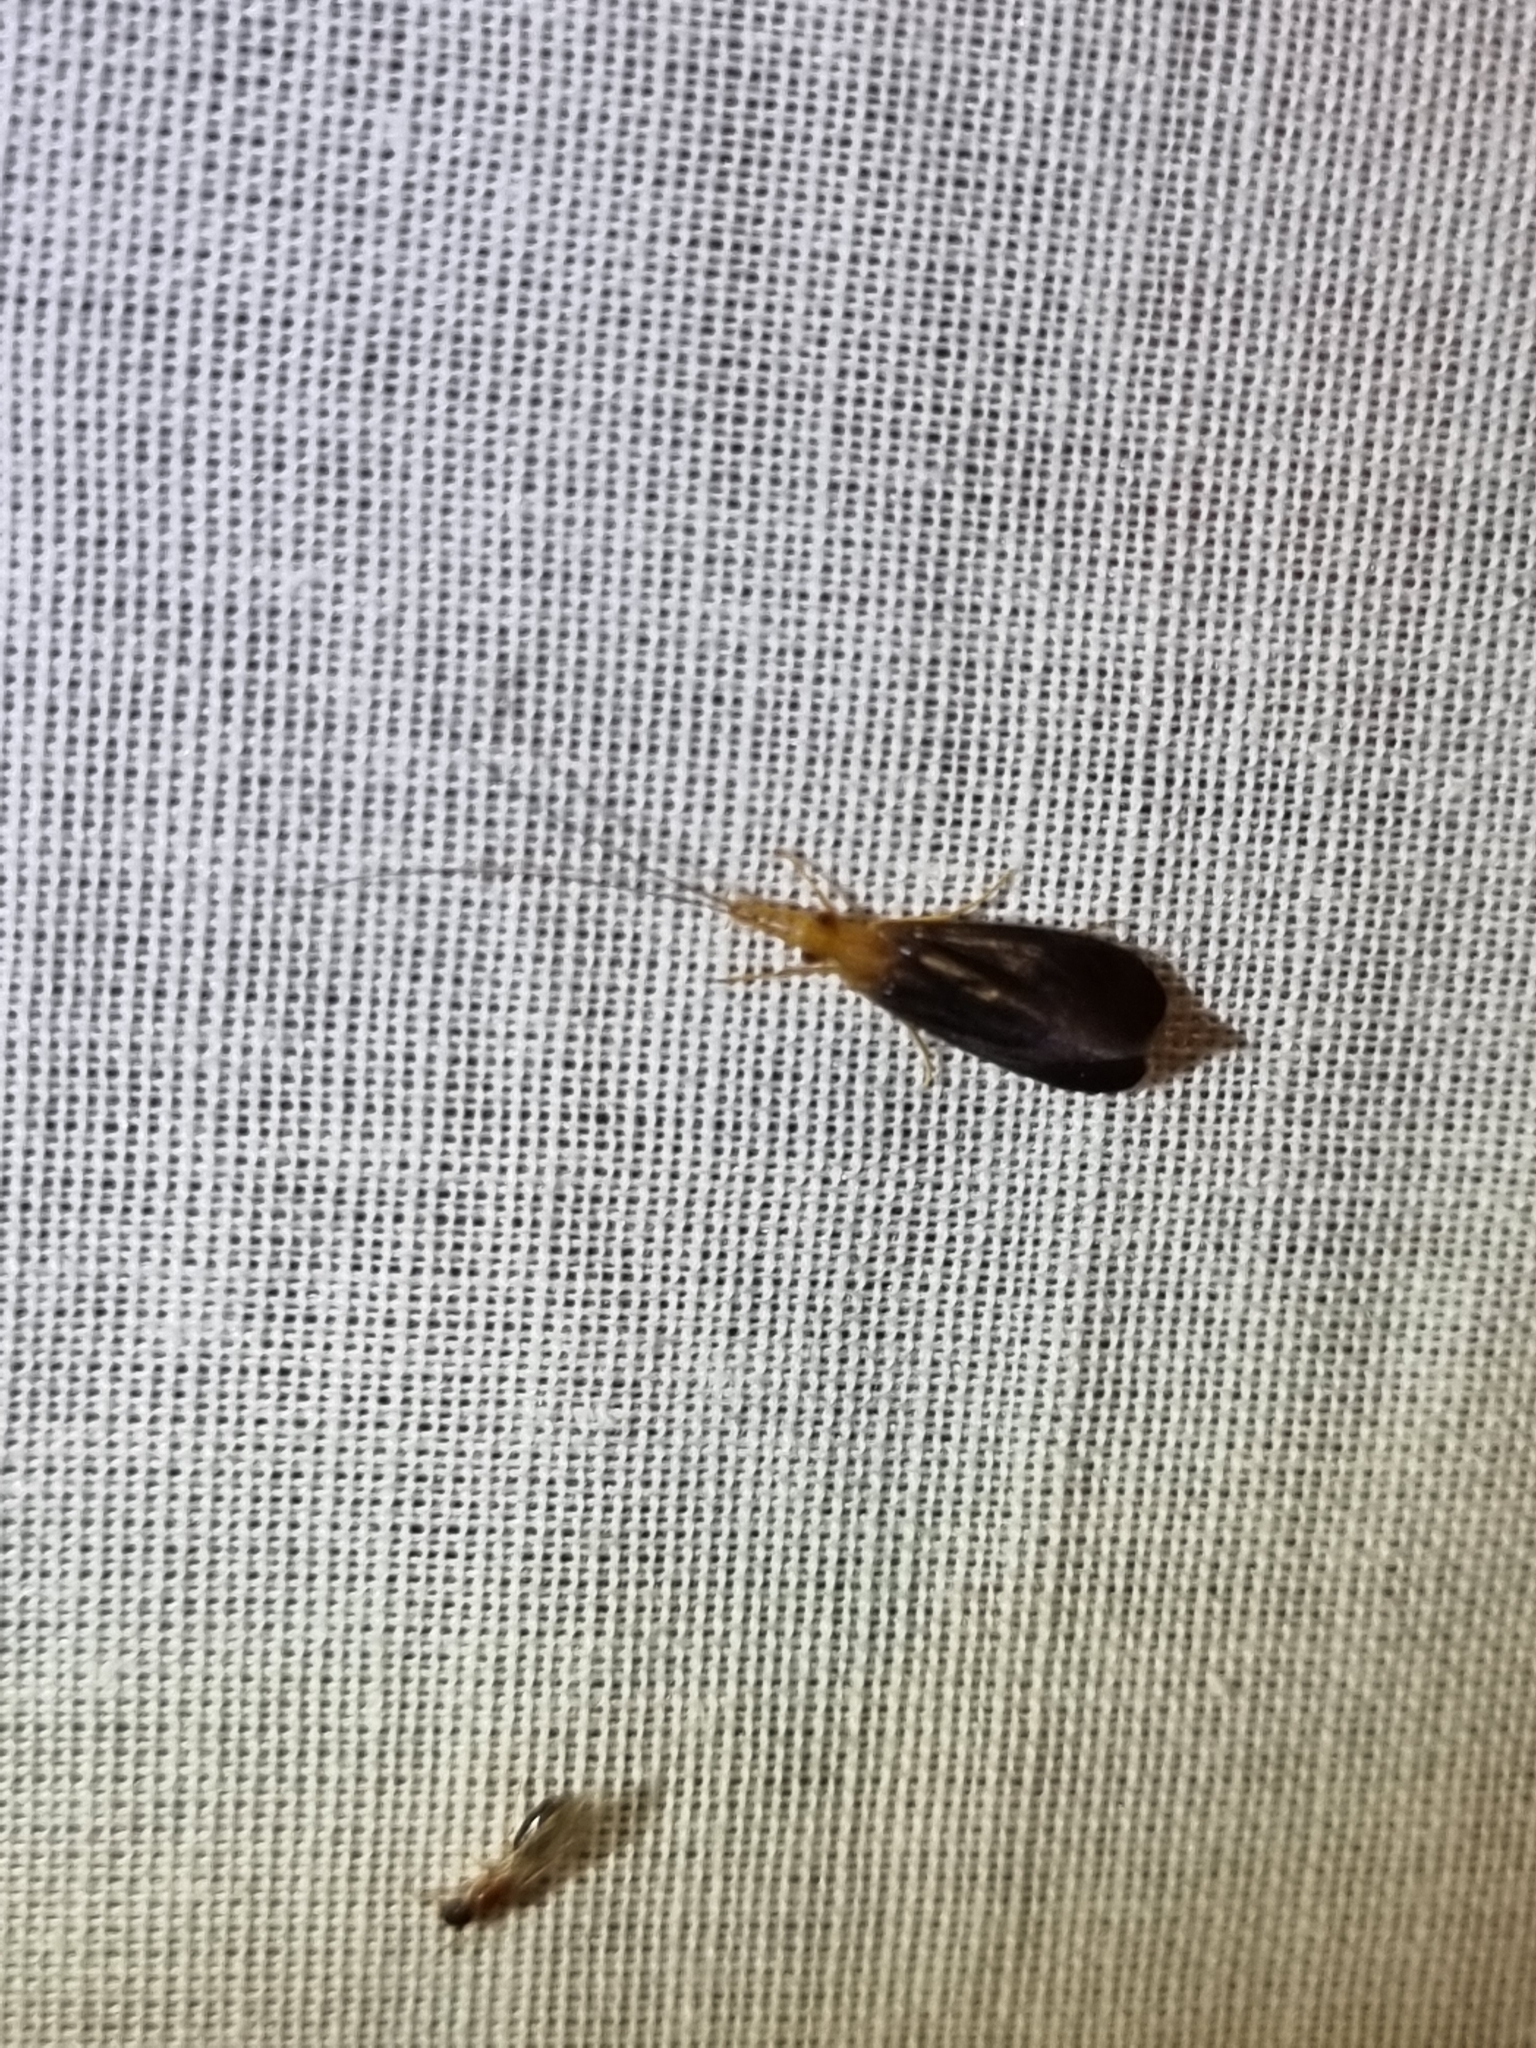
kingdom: Animalia
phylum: Arthropoda
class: Insecta
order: Trichoptera
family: Calamoceratidae
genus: Anisocentropus
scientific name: Anisocentropus latifascia
